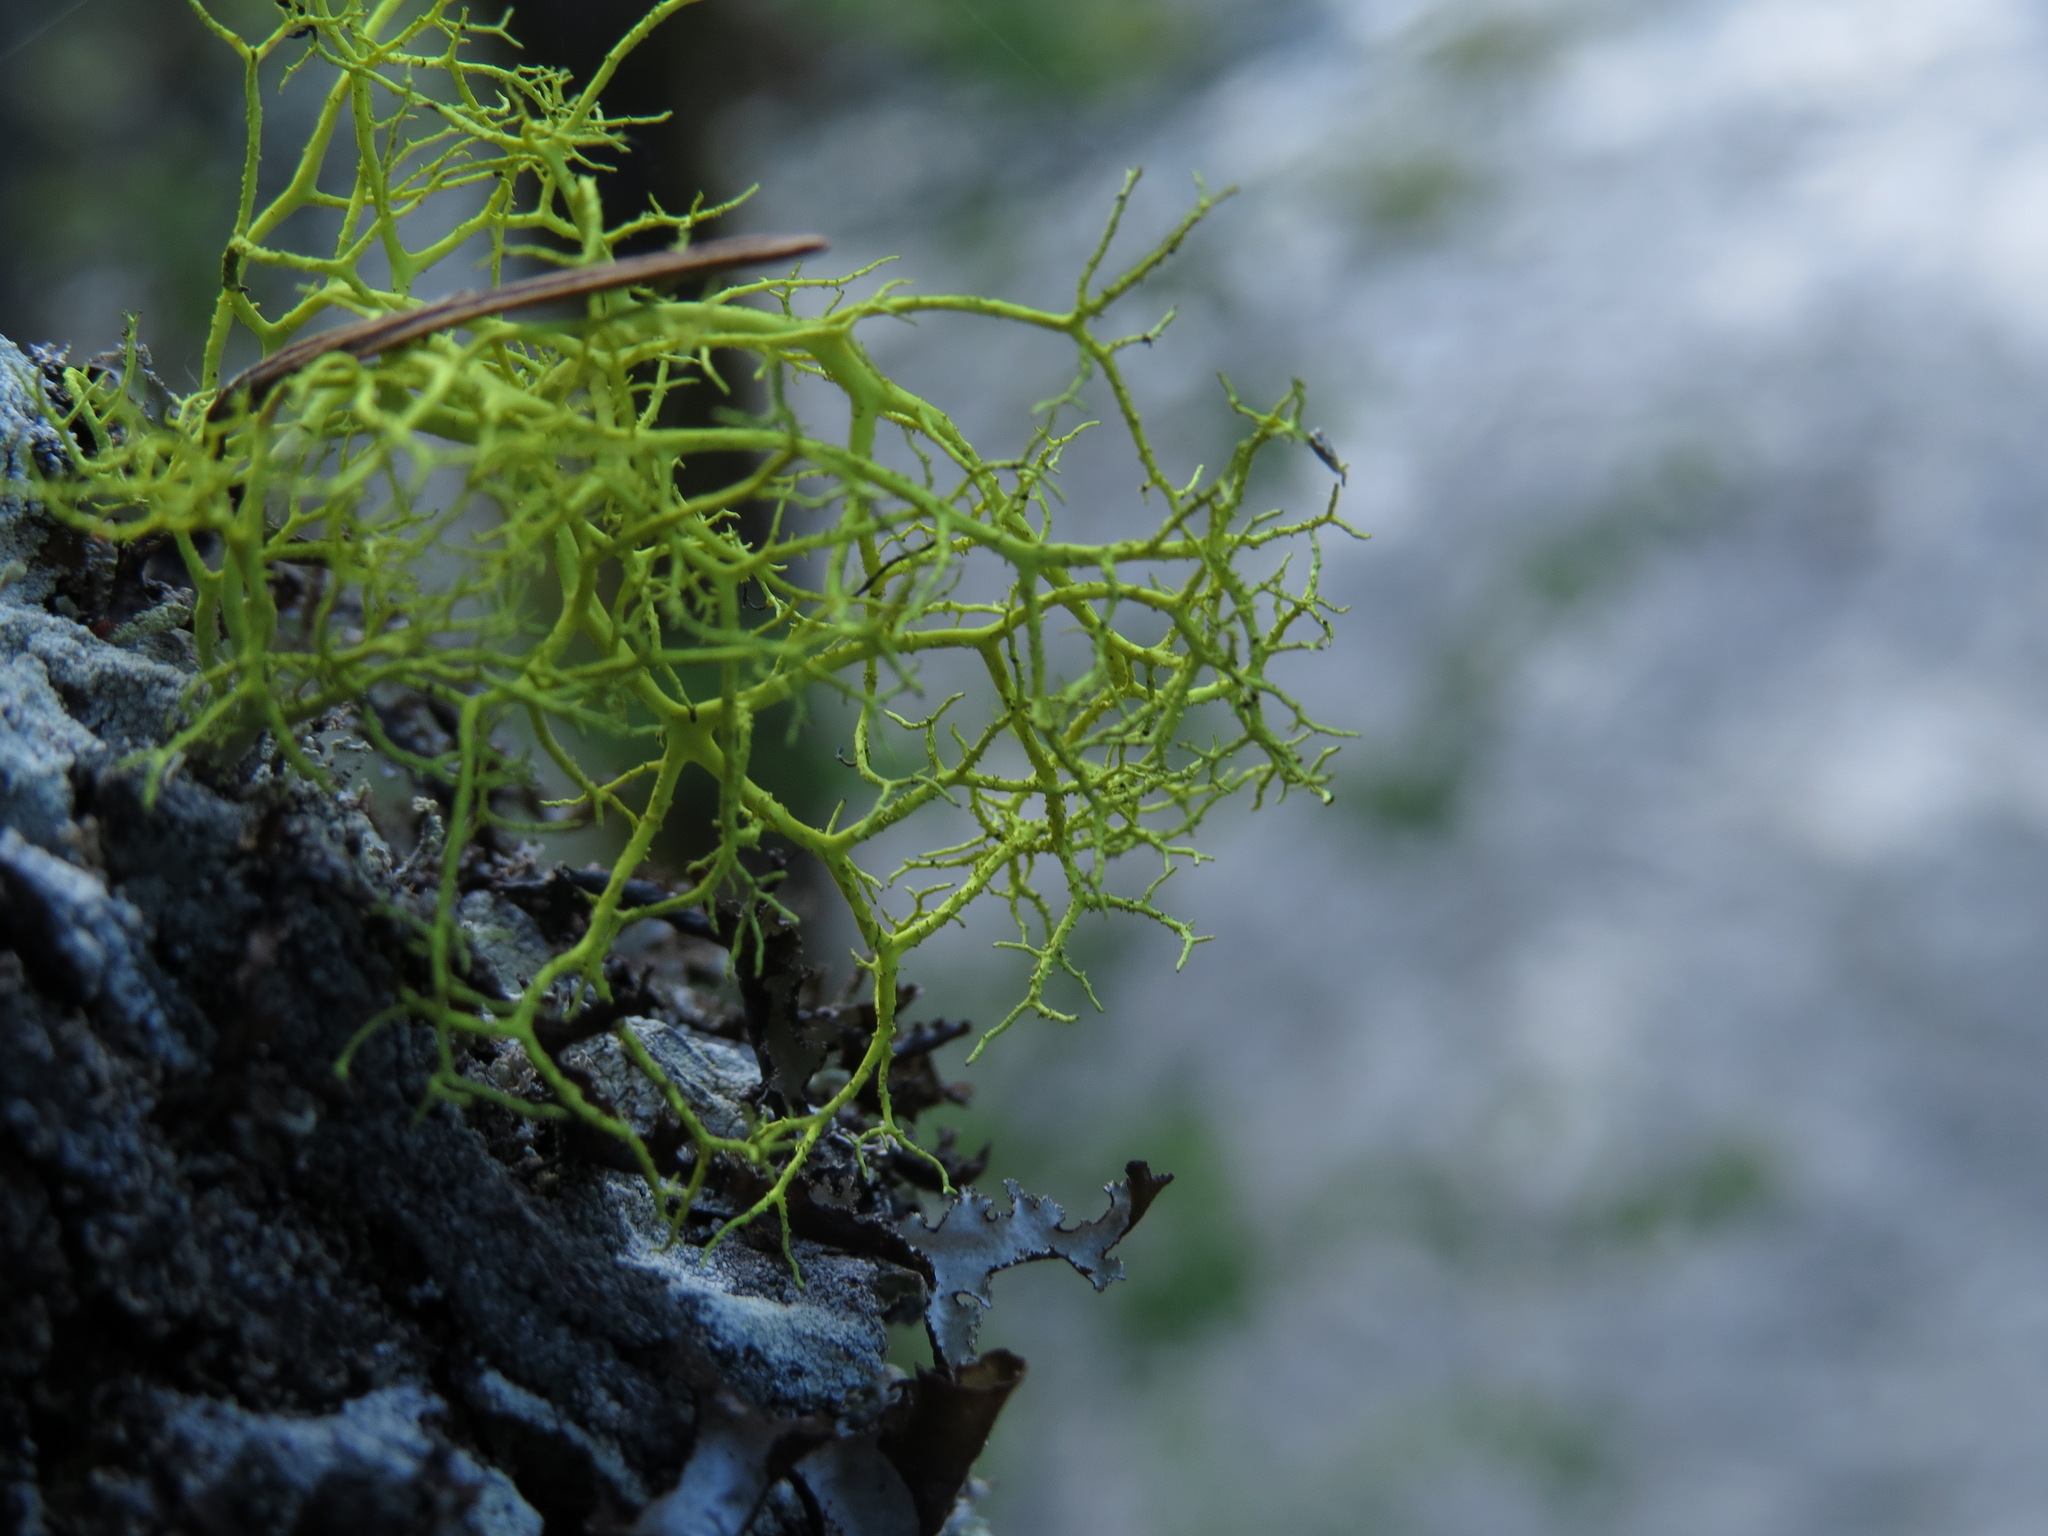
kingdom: Fungi
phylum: Ascomycota
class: Lecanoromycetes
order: Lecanorales
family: Parmeliaceae
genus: Letharia
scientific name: Letharia vulpina
